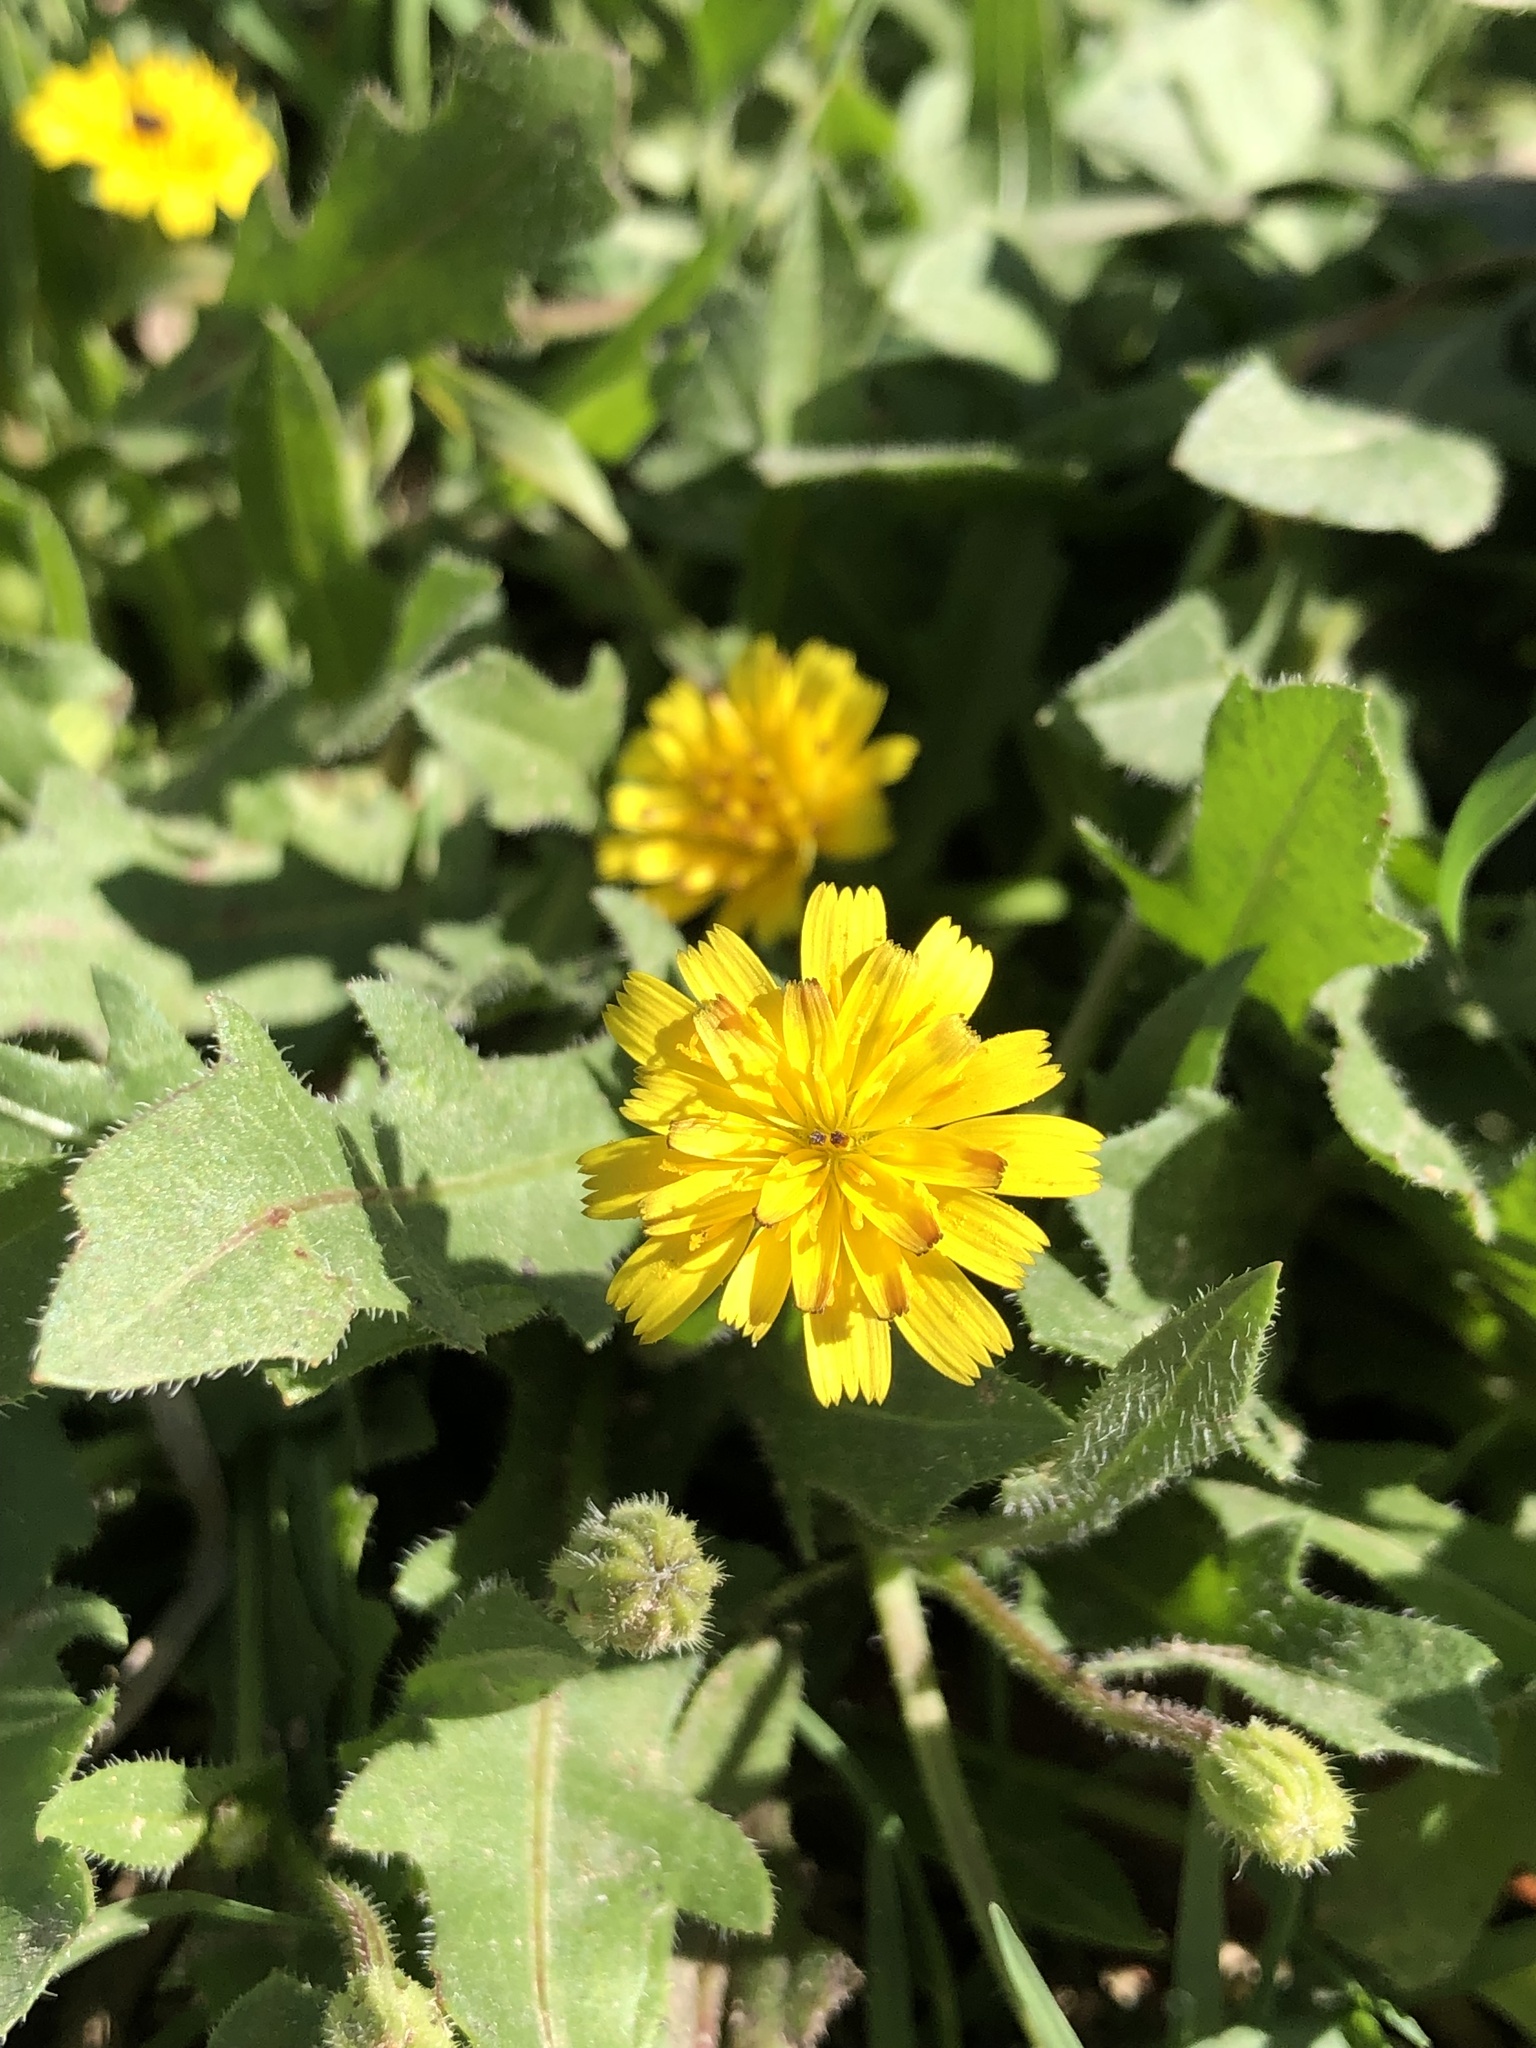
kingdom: Plantae
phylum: Tracheophyta
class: Magnoliopsida
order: Asterales
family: Asteraceae
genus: Hedypnois
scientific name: Hedypnois rhagadioloides
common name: Cretan weed
